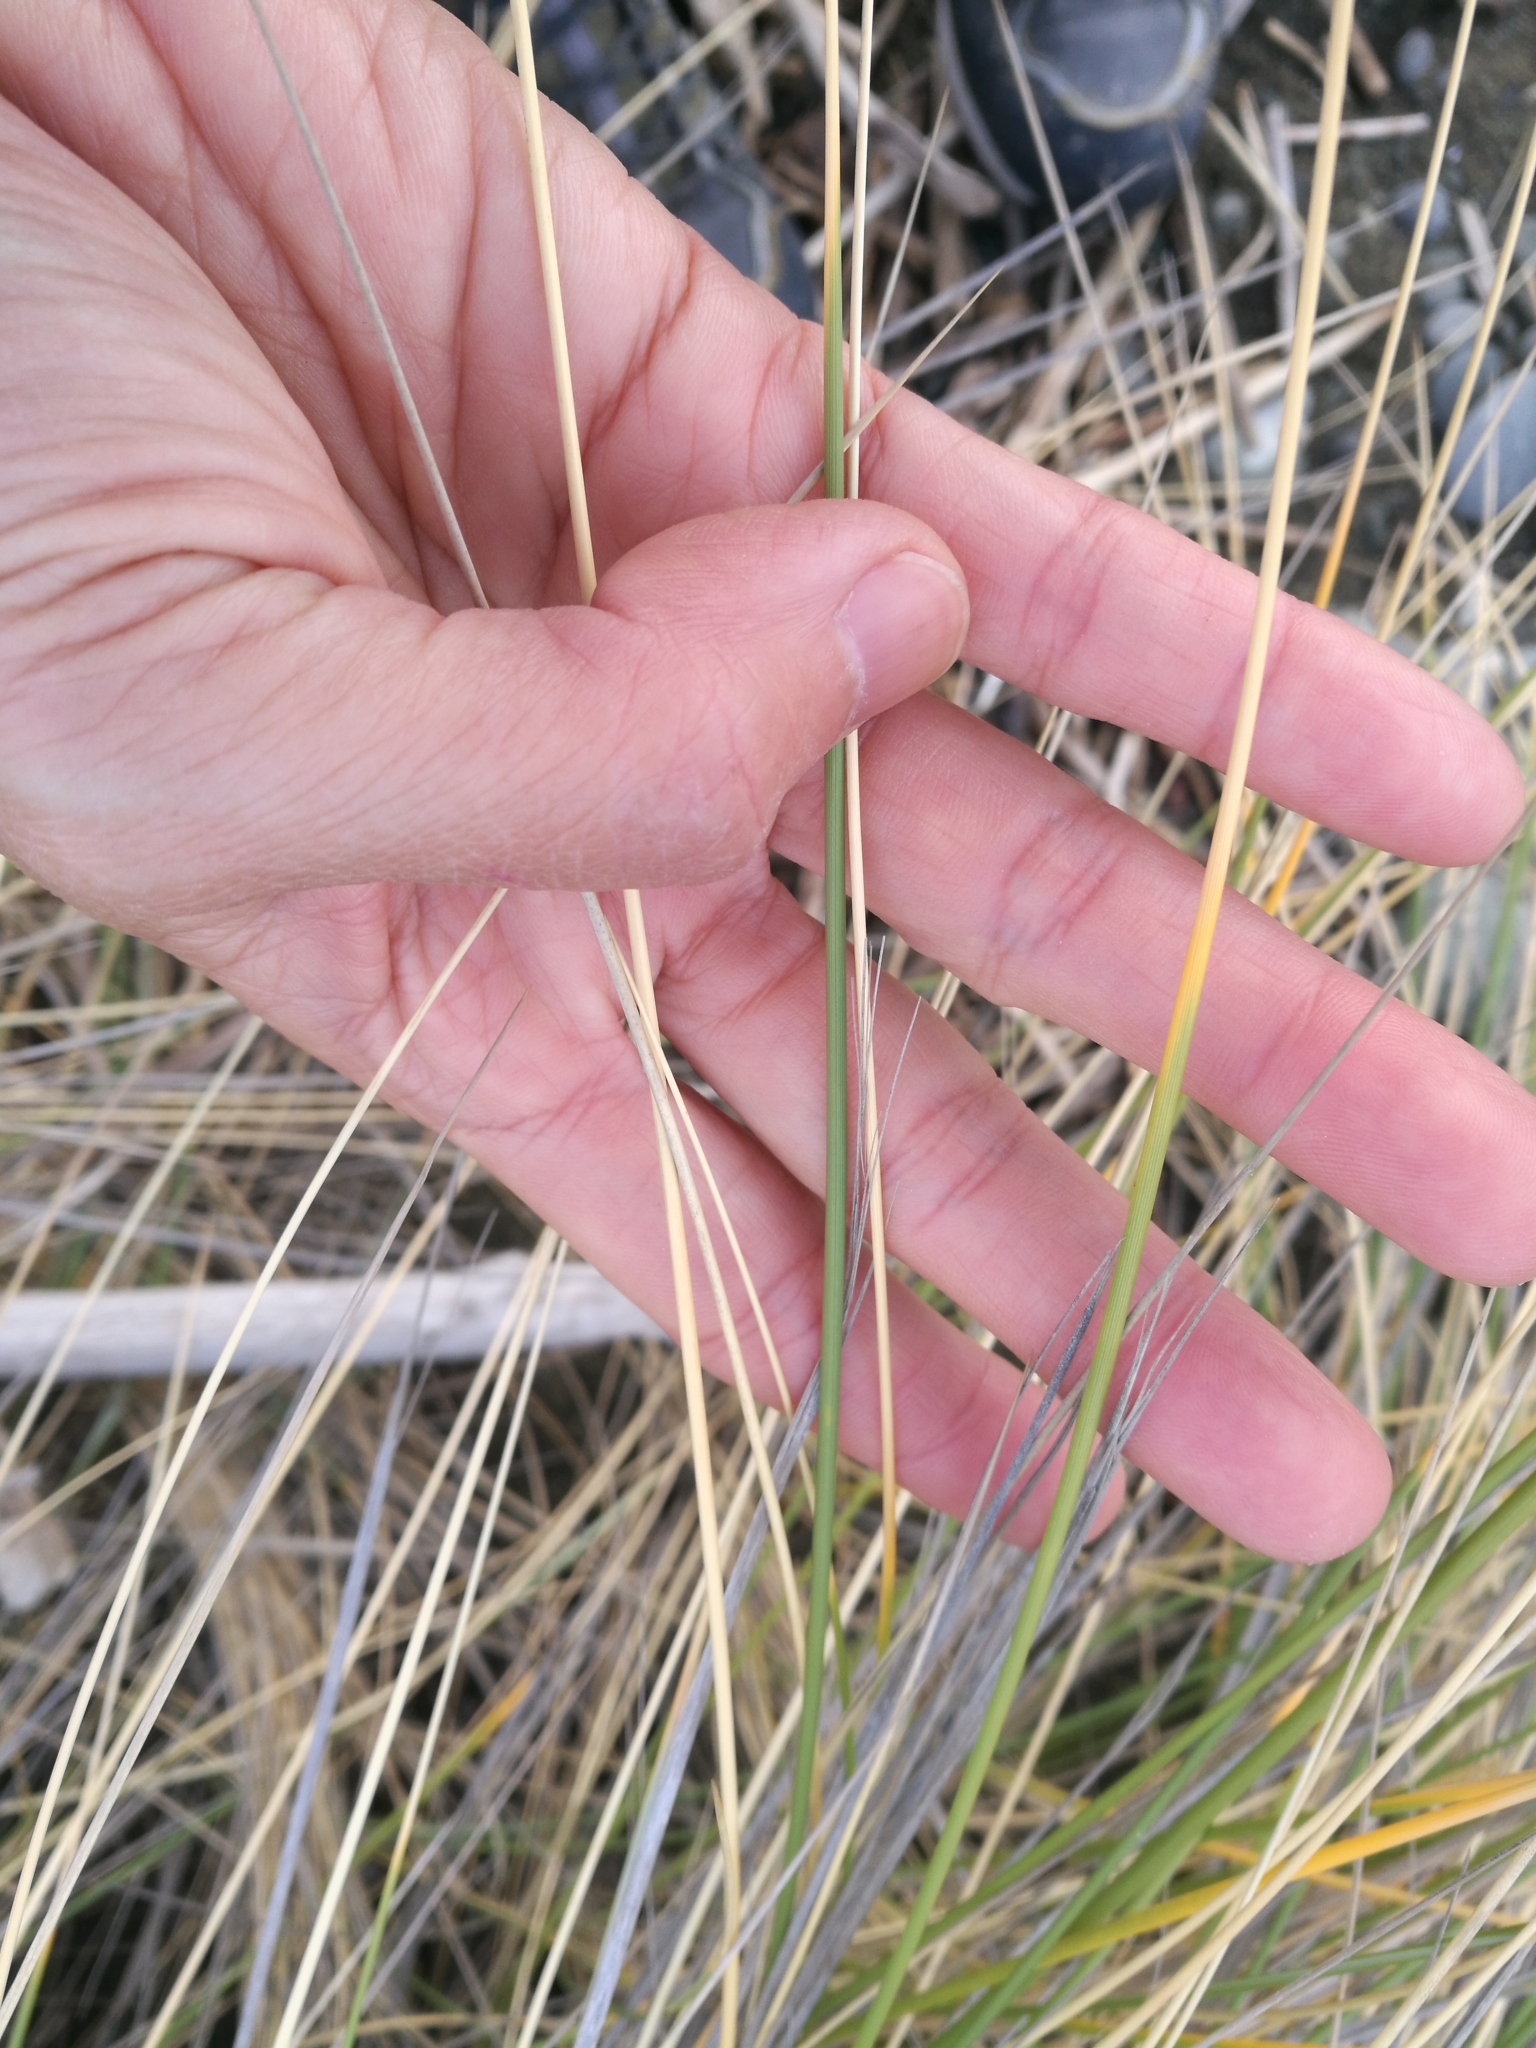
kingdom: Plantae
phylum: Tracheophyta
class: Liliopsida
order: Poales
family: Poaceae
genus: Calamagrostis
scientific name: Calamagrostis arenaria
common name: European beachgrass
